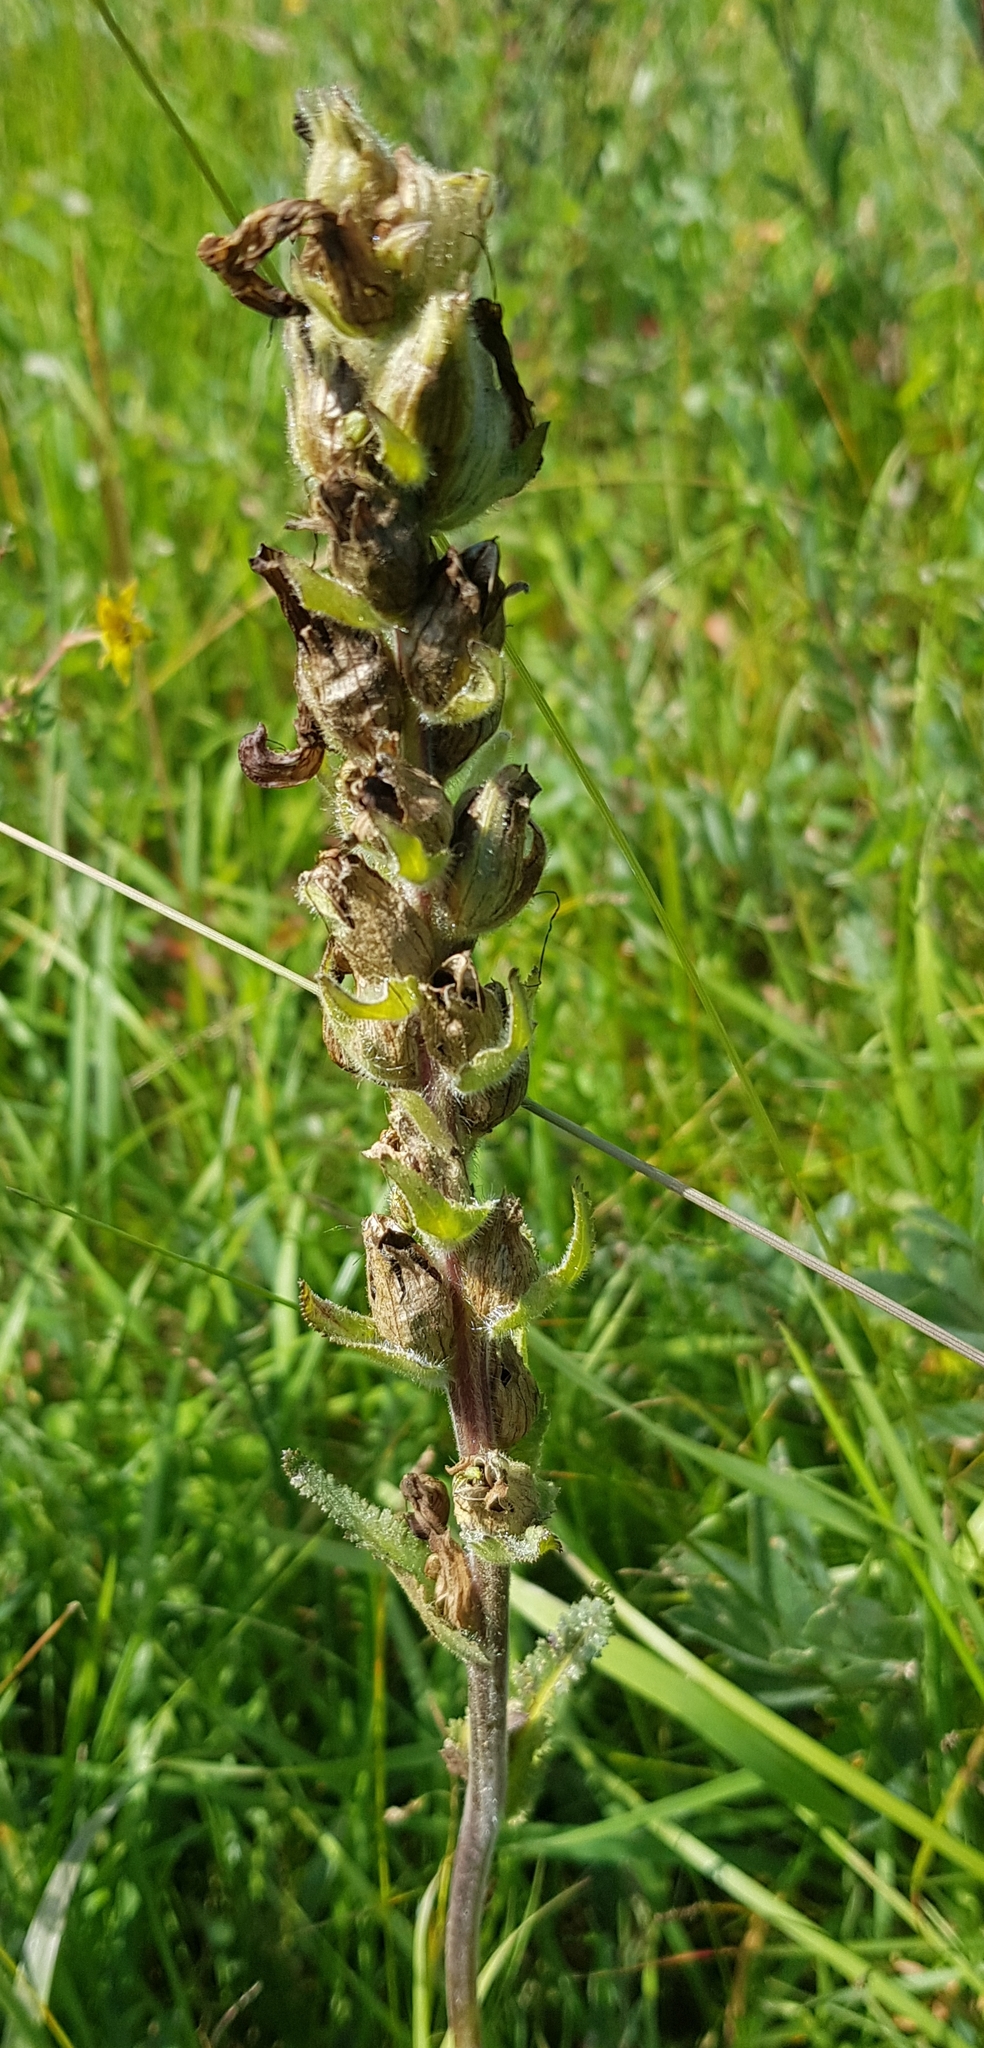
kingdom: Plantae
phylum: Tracheophyta
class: Magnoliopsida
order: Lamiales
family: Orobanchaceae
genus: Pedicularis
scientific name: Pedicularis tristis
